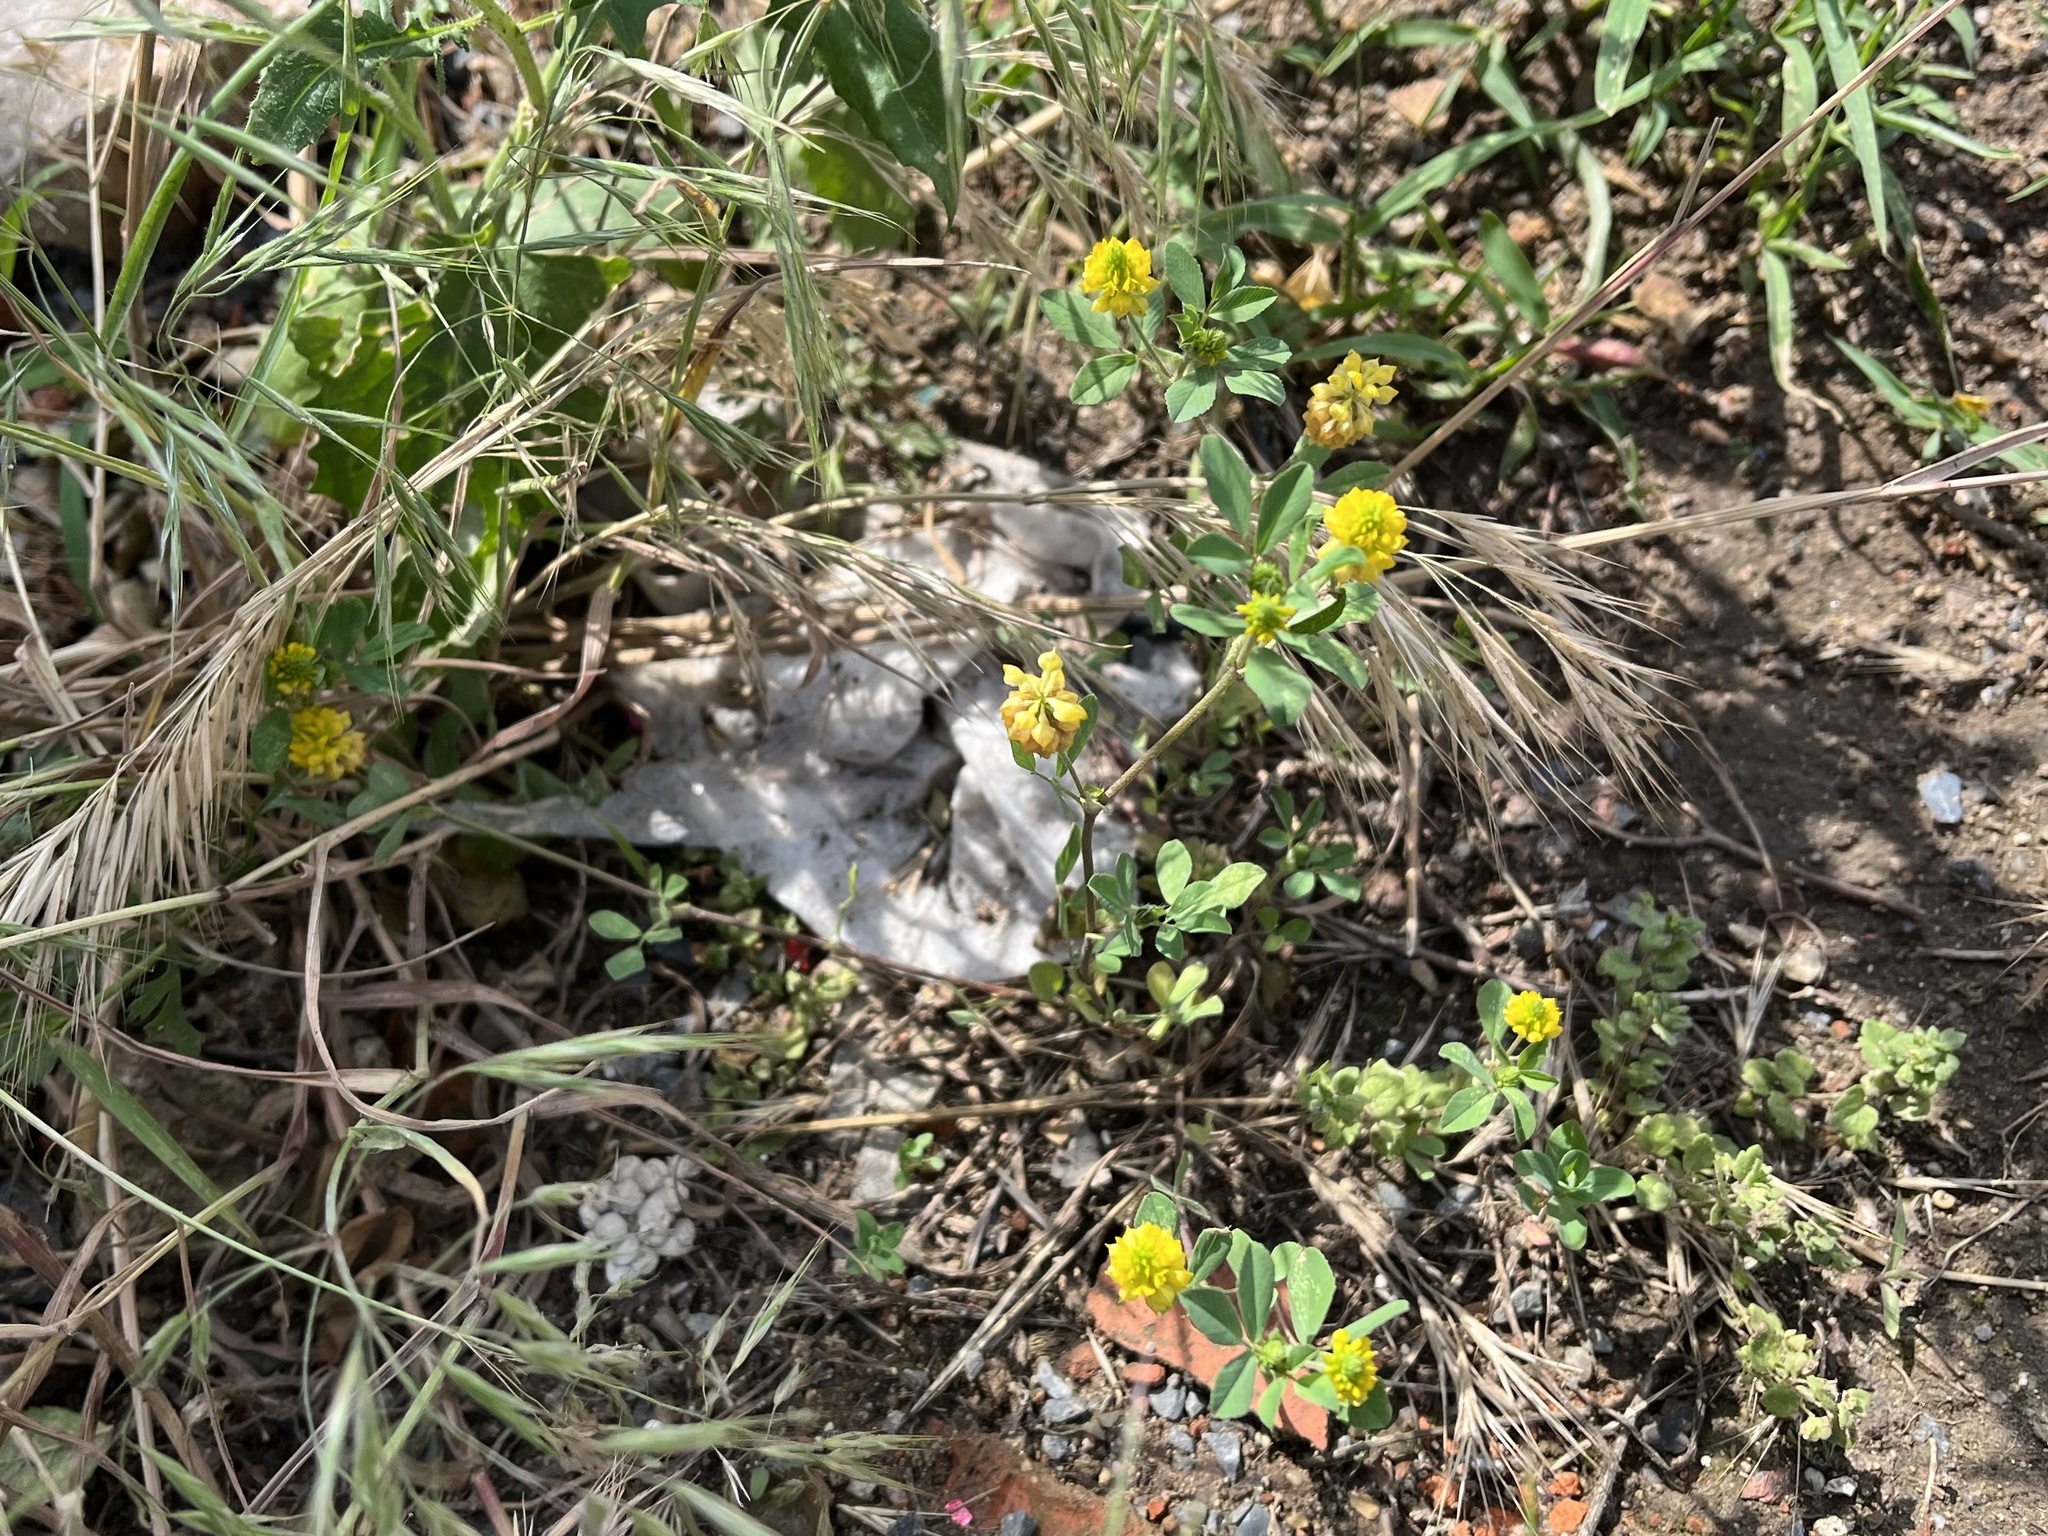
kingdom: Plantae
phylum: Tracheophyta
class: Magnoliopsida
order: Fabales
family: Fabaceae
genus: Trifolium
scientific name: Trifolium campestre
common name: Field clover
